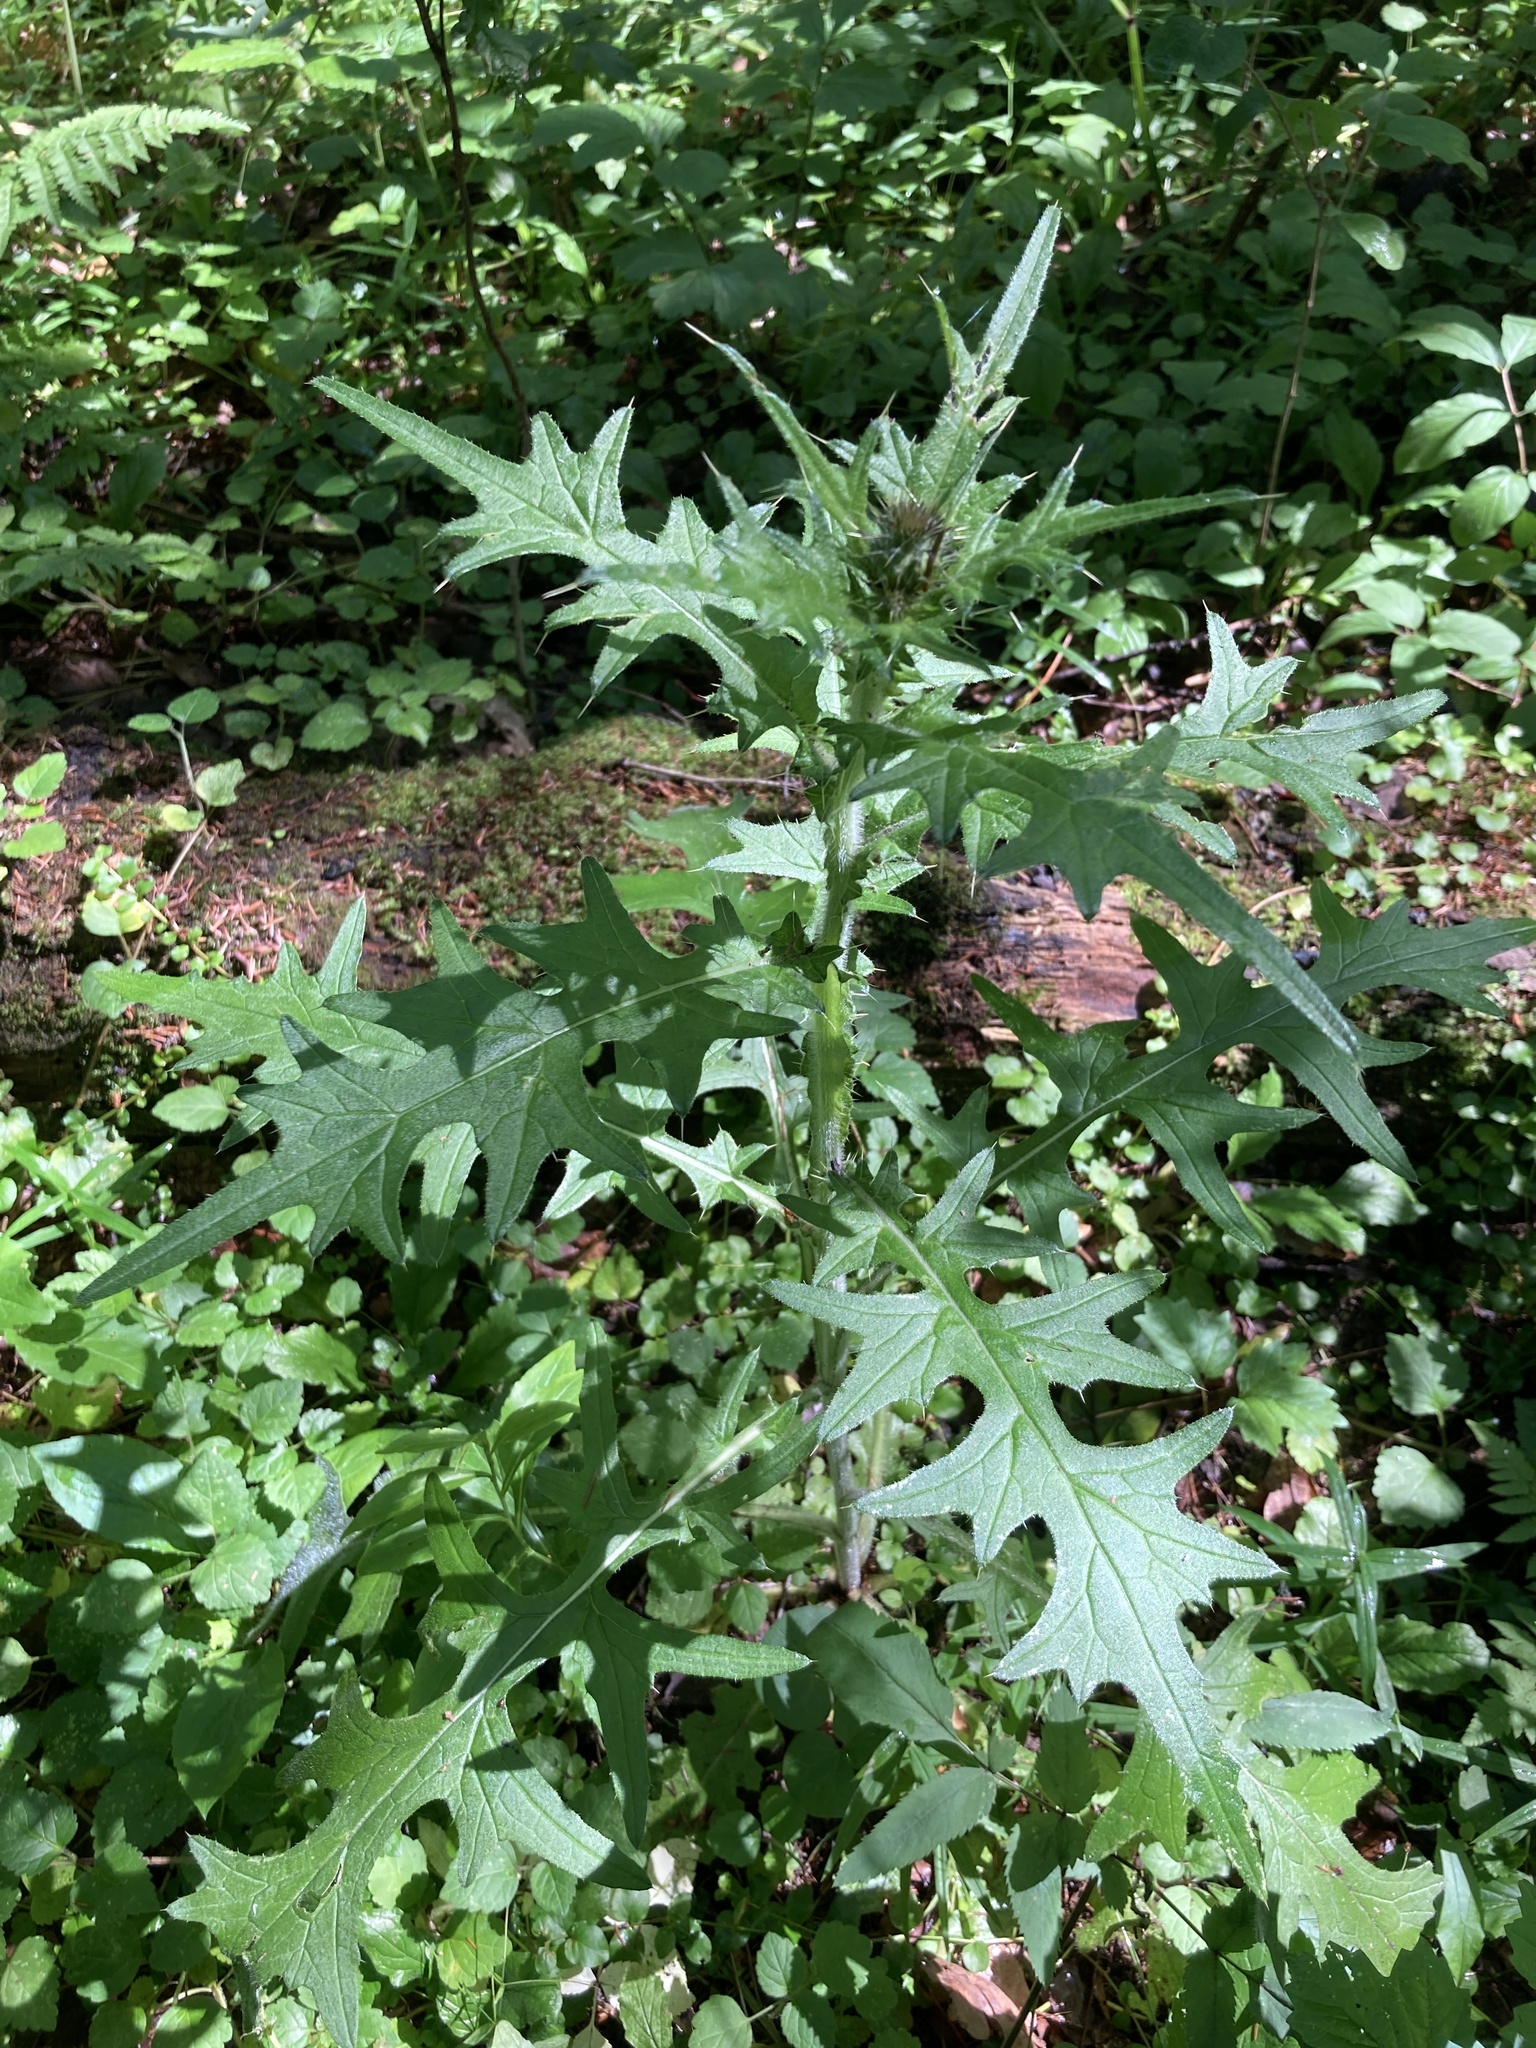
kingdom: Plantae
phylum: Tracheophyta
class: Magnoliopsida
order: Asterales
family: Asteraceae
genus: Cirsium
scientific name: Cirsium vulgare
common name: Bull thistle
